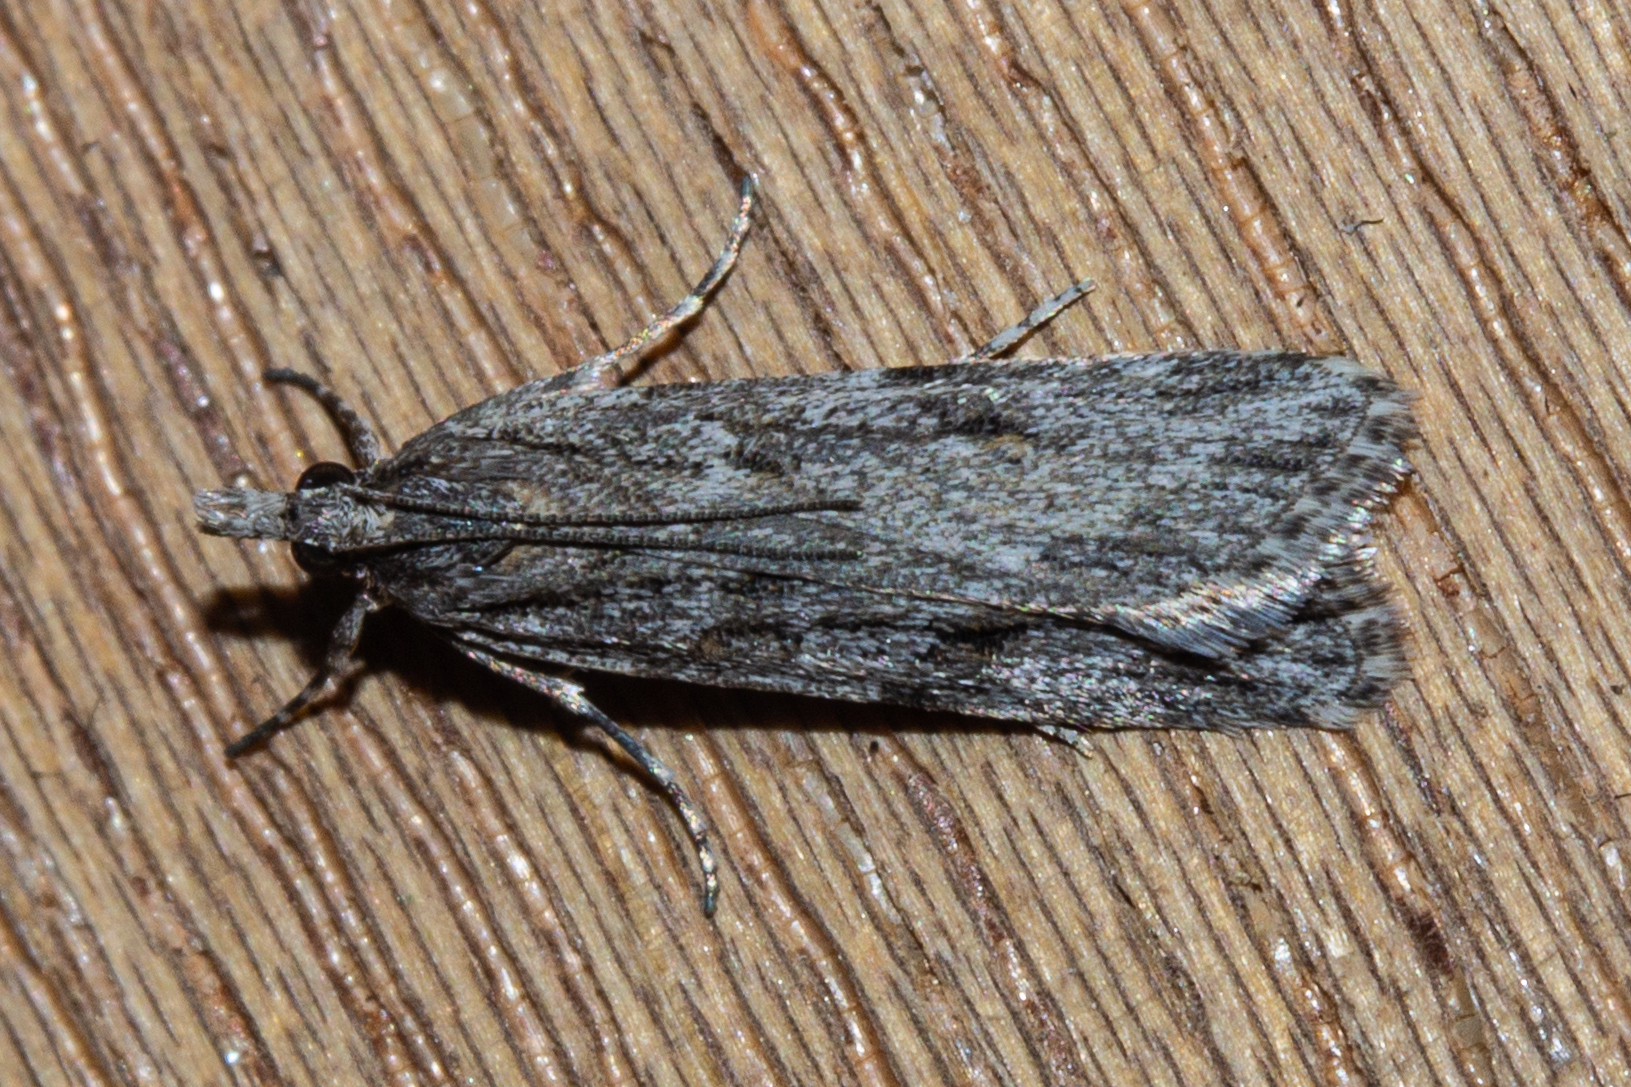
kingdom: Animalia
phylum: Arthropoda
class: Insecta
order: Lepidoptera
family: Crambidae
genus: Scoparia
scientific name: Scoparia chalicodes
